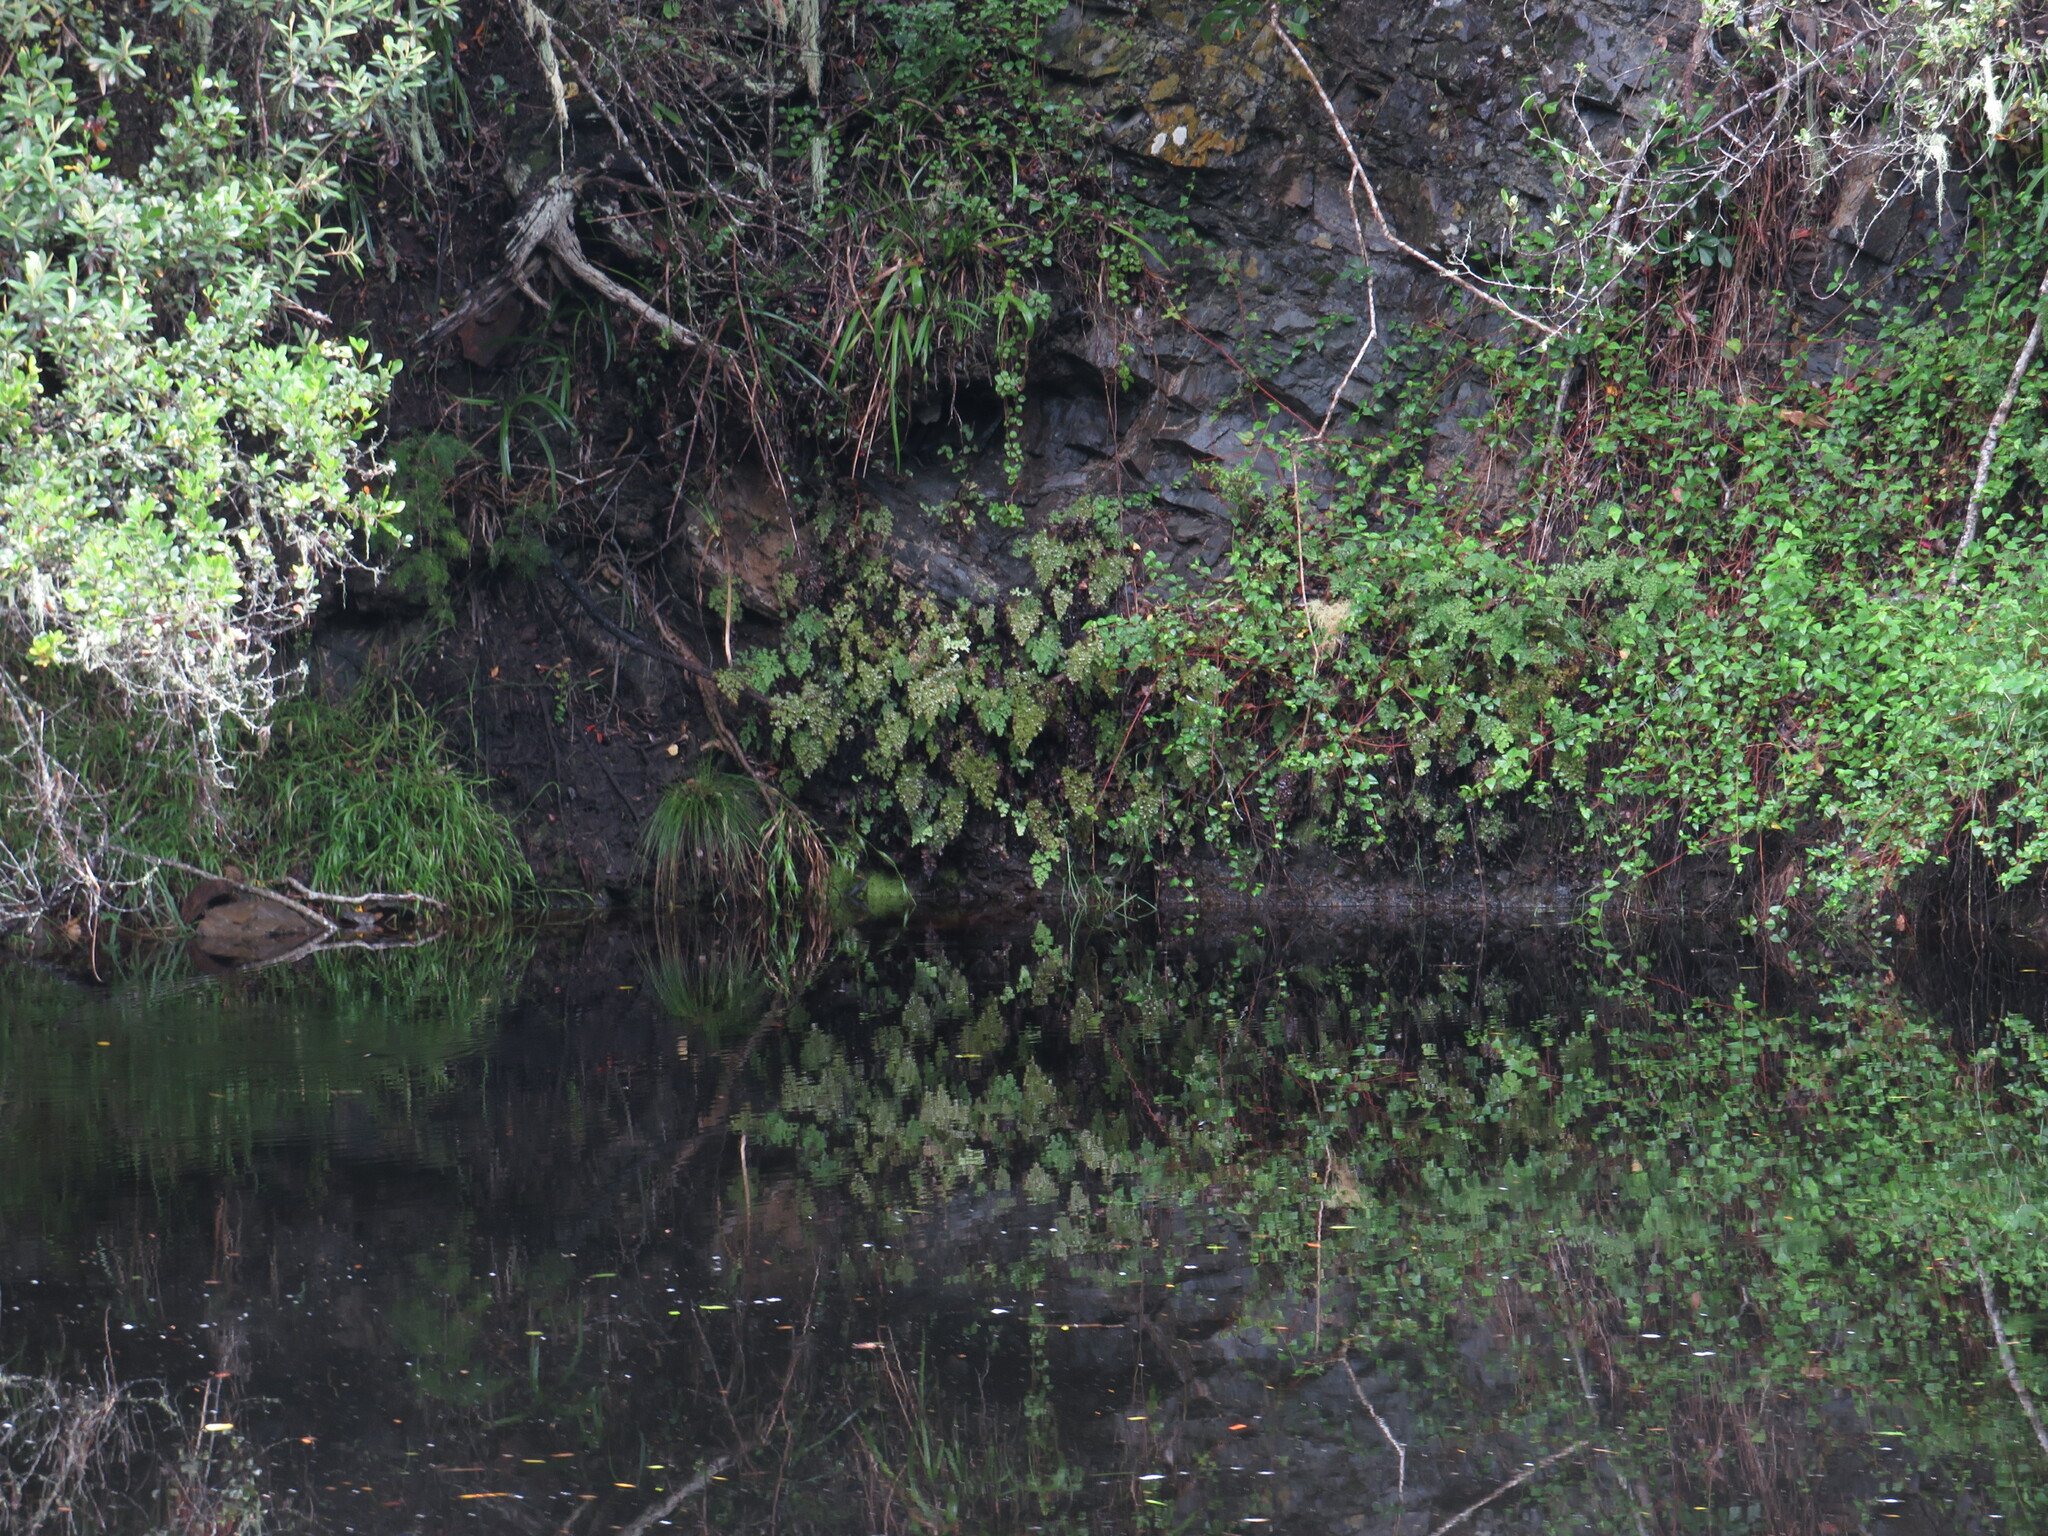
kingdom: Plantae
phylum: Tracheophyta
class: Polypodiopsida
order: Polypodiales
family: Pteridaceae
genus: Adiantum
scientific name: Adiantum raddianum
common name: Delta maidenhair fern
